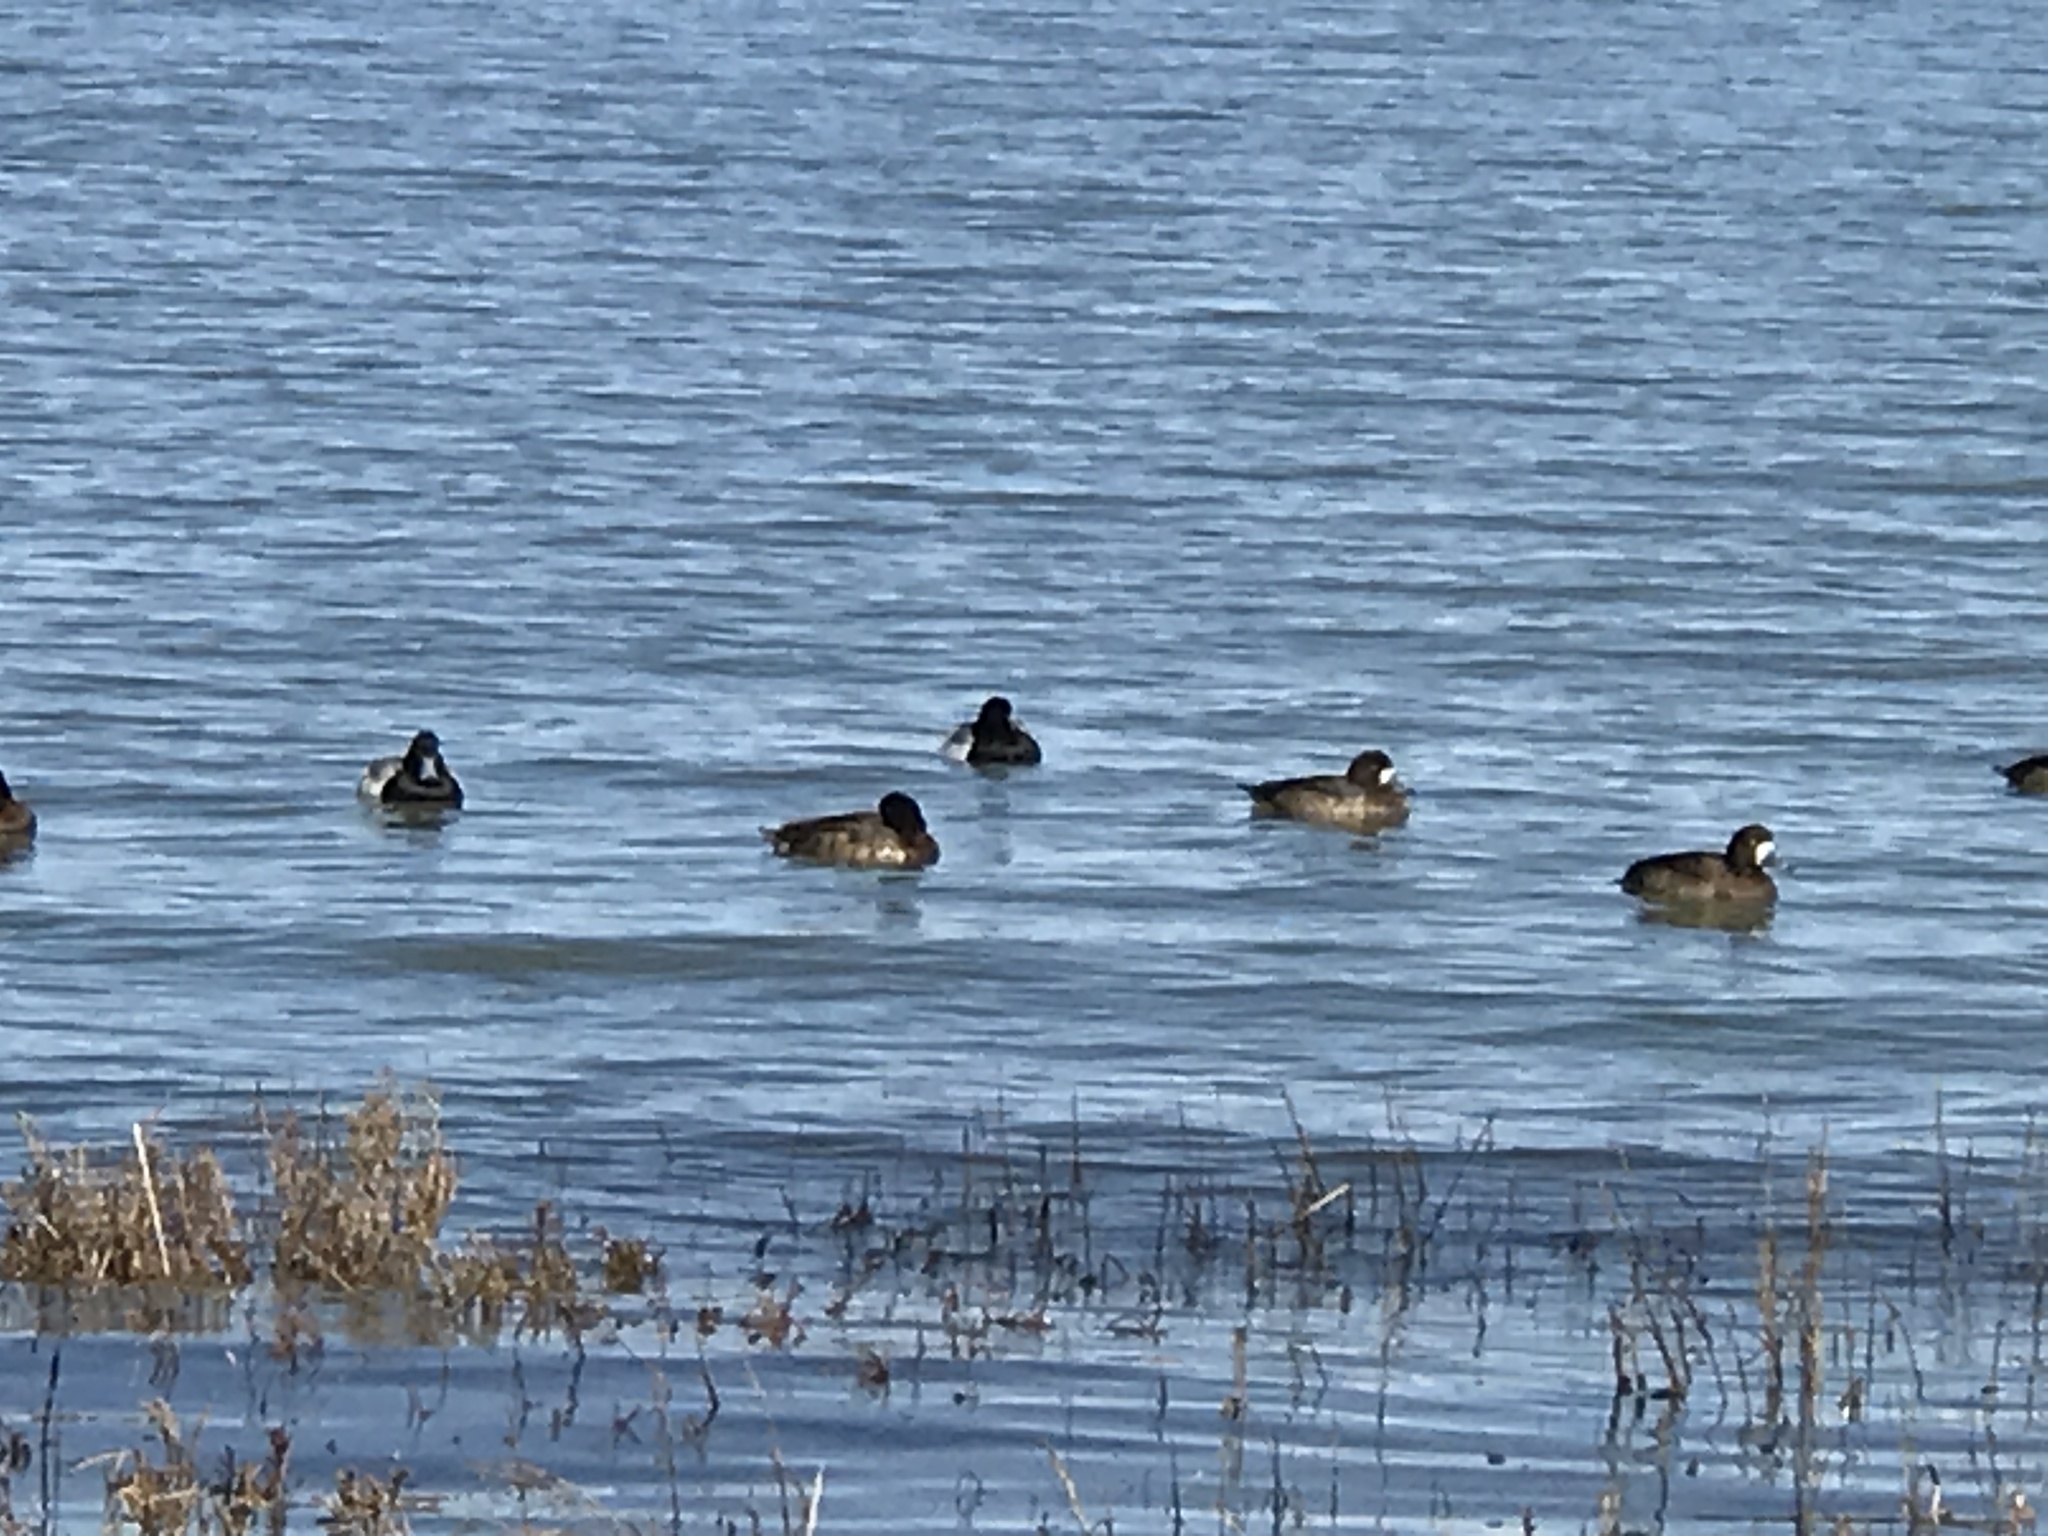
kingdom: Animalia
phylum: Chordata
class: Aves
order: Anseriformes
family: Anatidae
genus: Aythya
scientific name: Aythya
